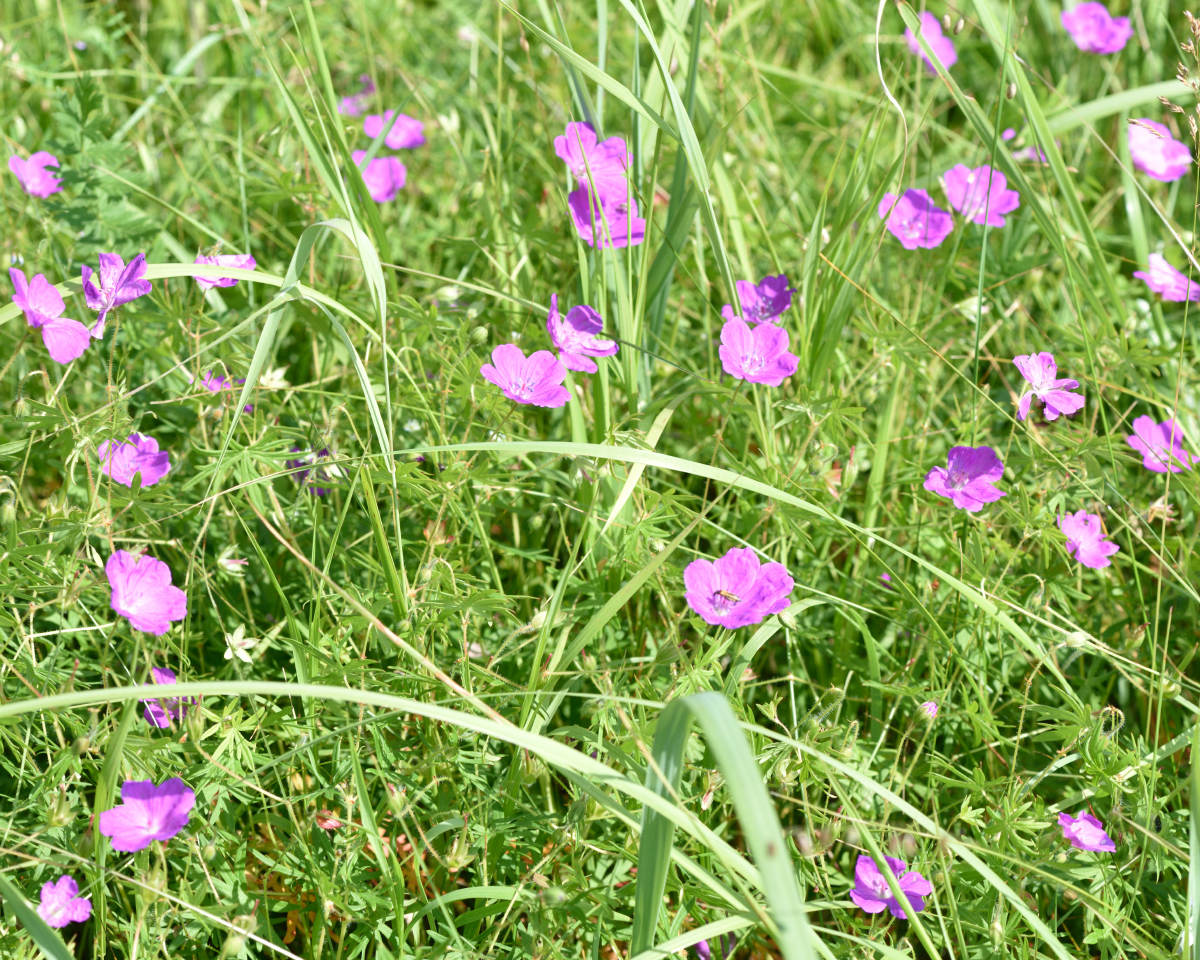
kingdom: Plantae
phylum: Tracheophyta
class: Magnoliopsida
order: Geraniales
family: Geraniaceae
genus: Geranium
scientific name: Geranium sanguineum
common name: Bloody crane's-bill
